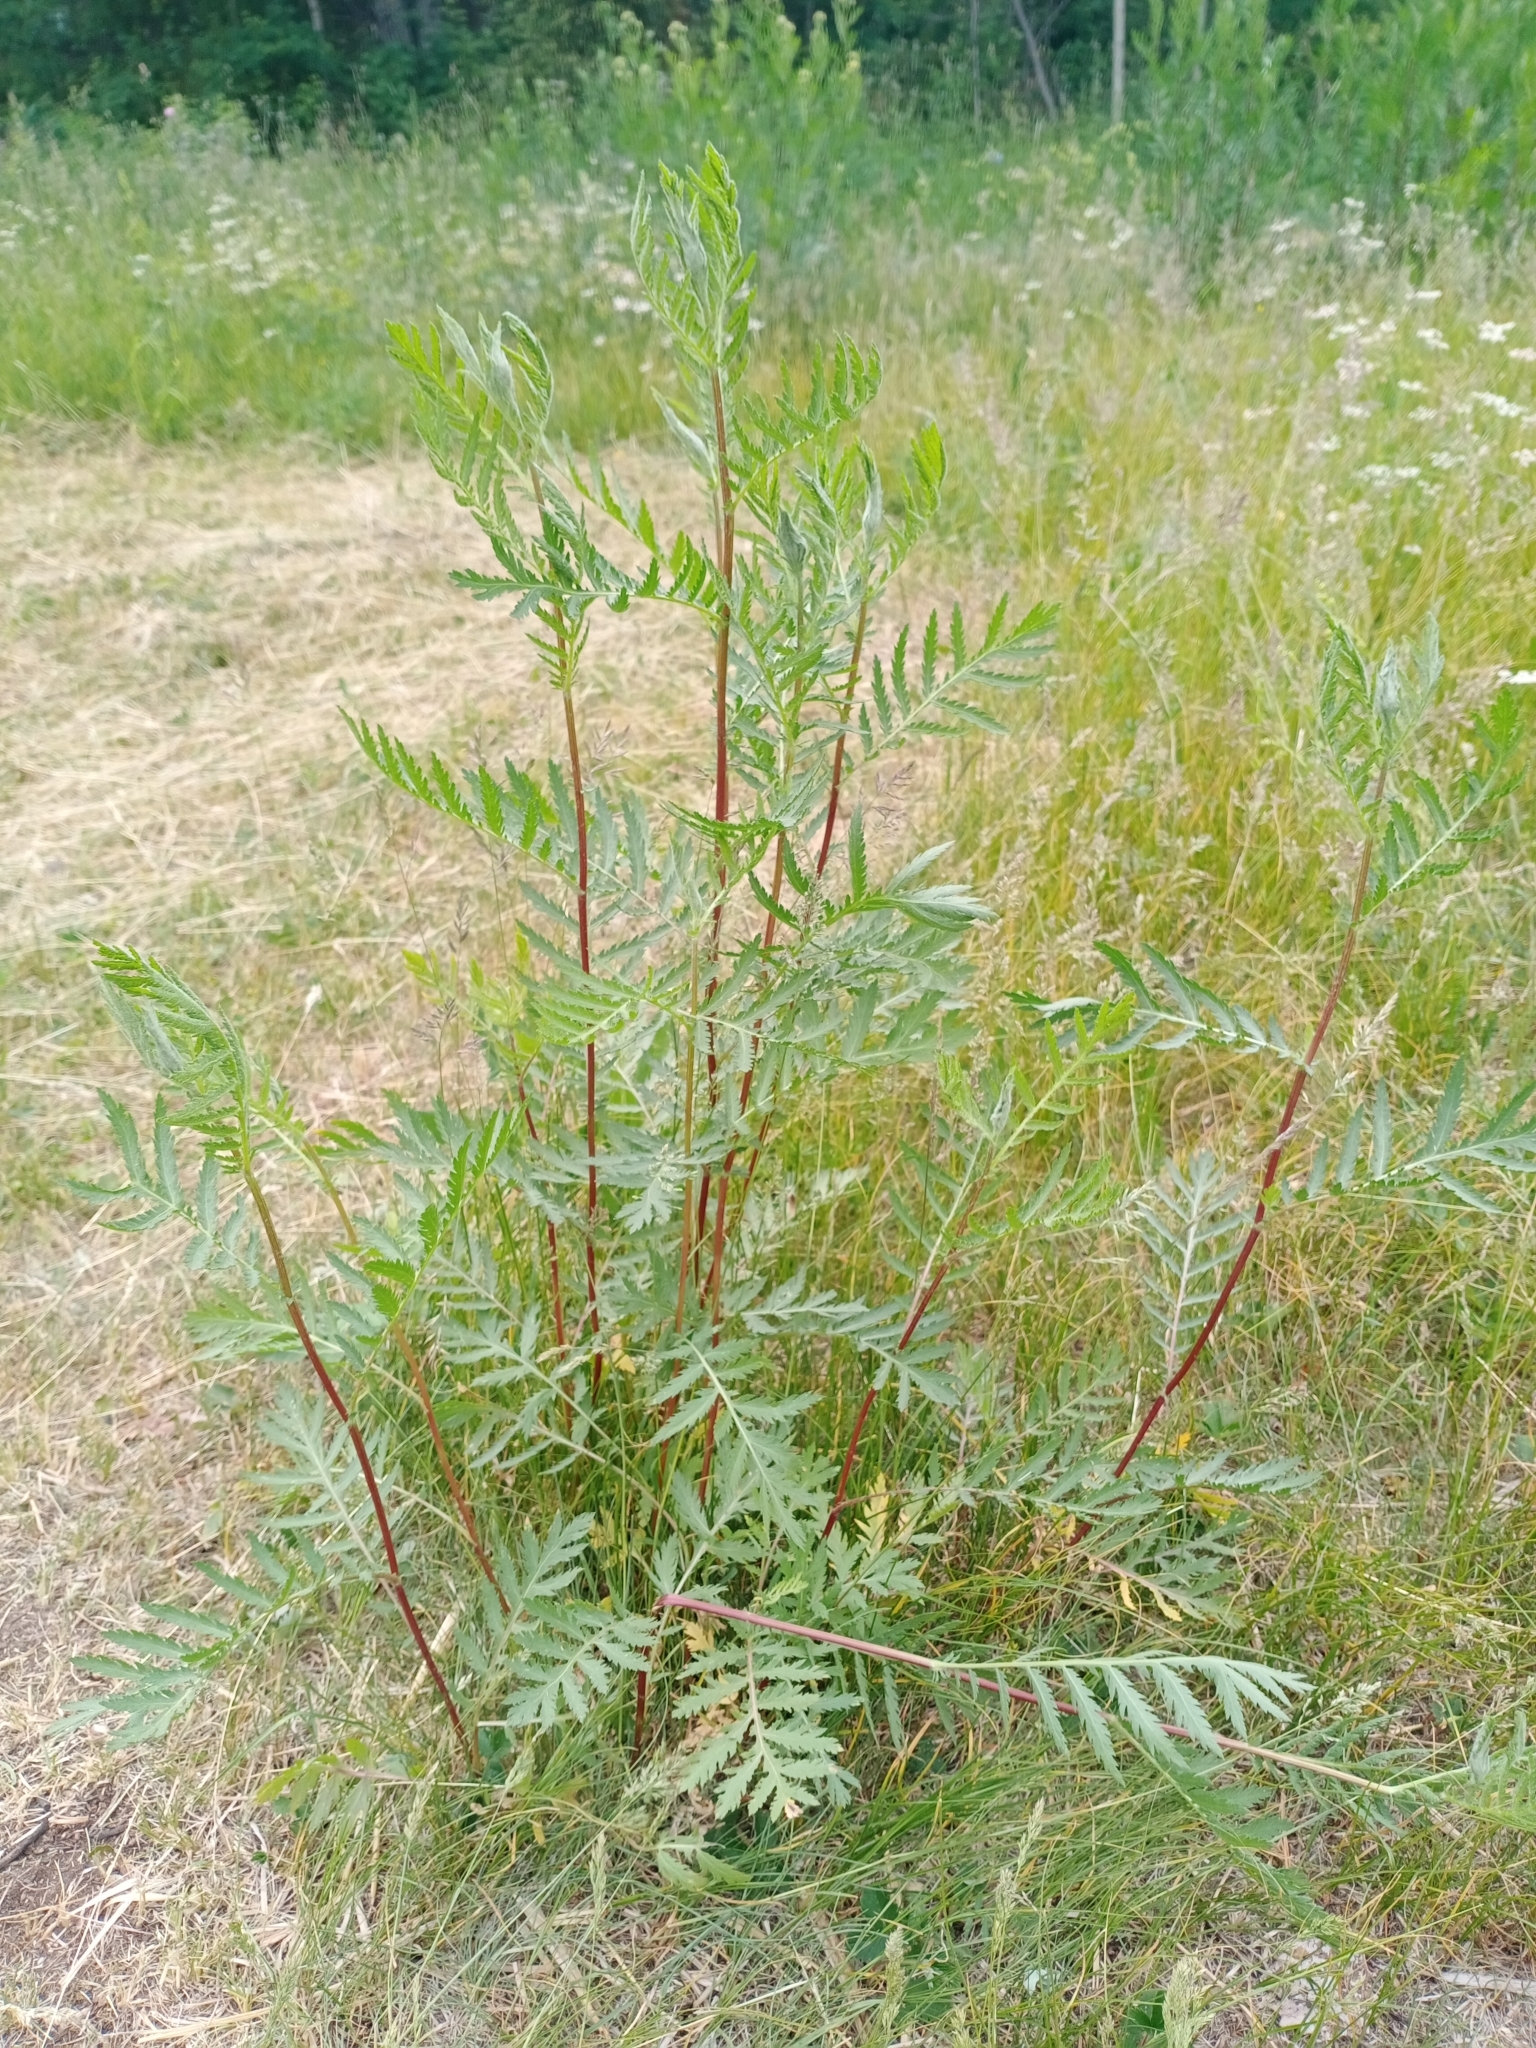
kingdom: Plantae
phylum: Tracheophyta
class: Magnoliopsida
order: Asterales
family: Asteraceae
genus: Tanacetum
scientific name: Tanacetum vulgare
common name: Common tansy
